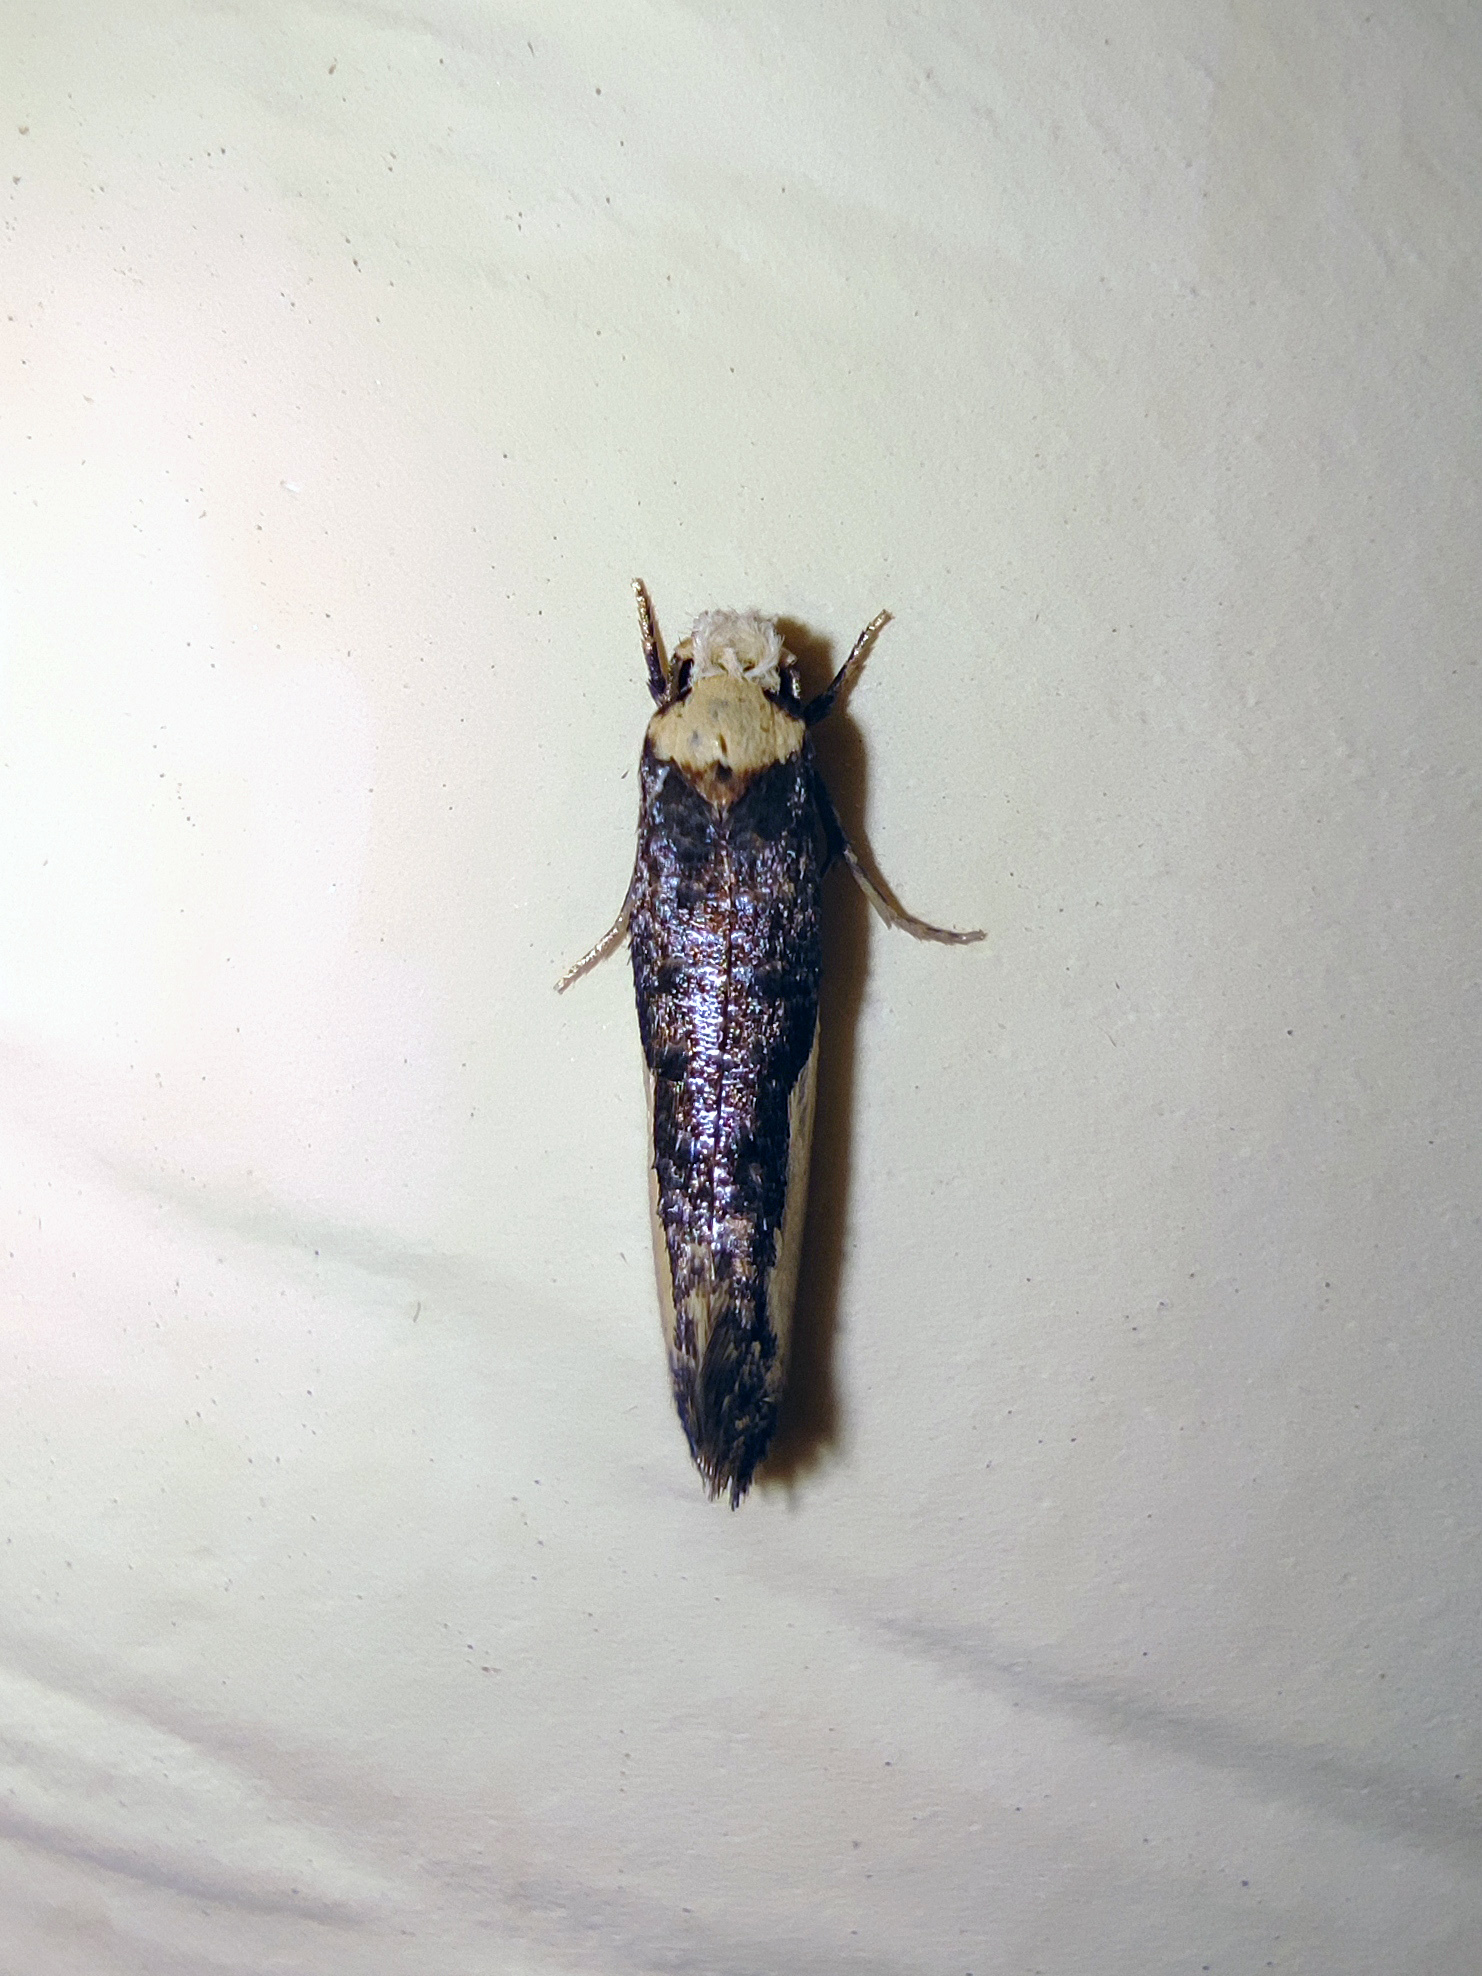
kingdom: Animalia
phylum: Arthropoda
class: Insecta
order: Lepidoptera
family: Tineidae
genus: Monopis
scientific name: Monopis monachella
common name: Moth
